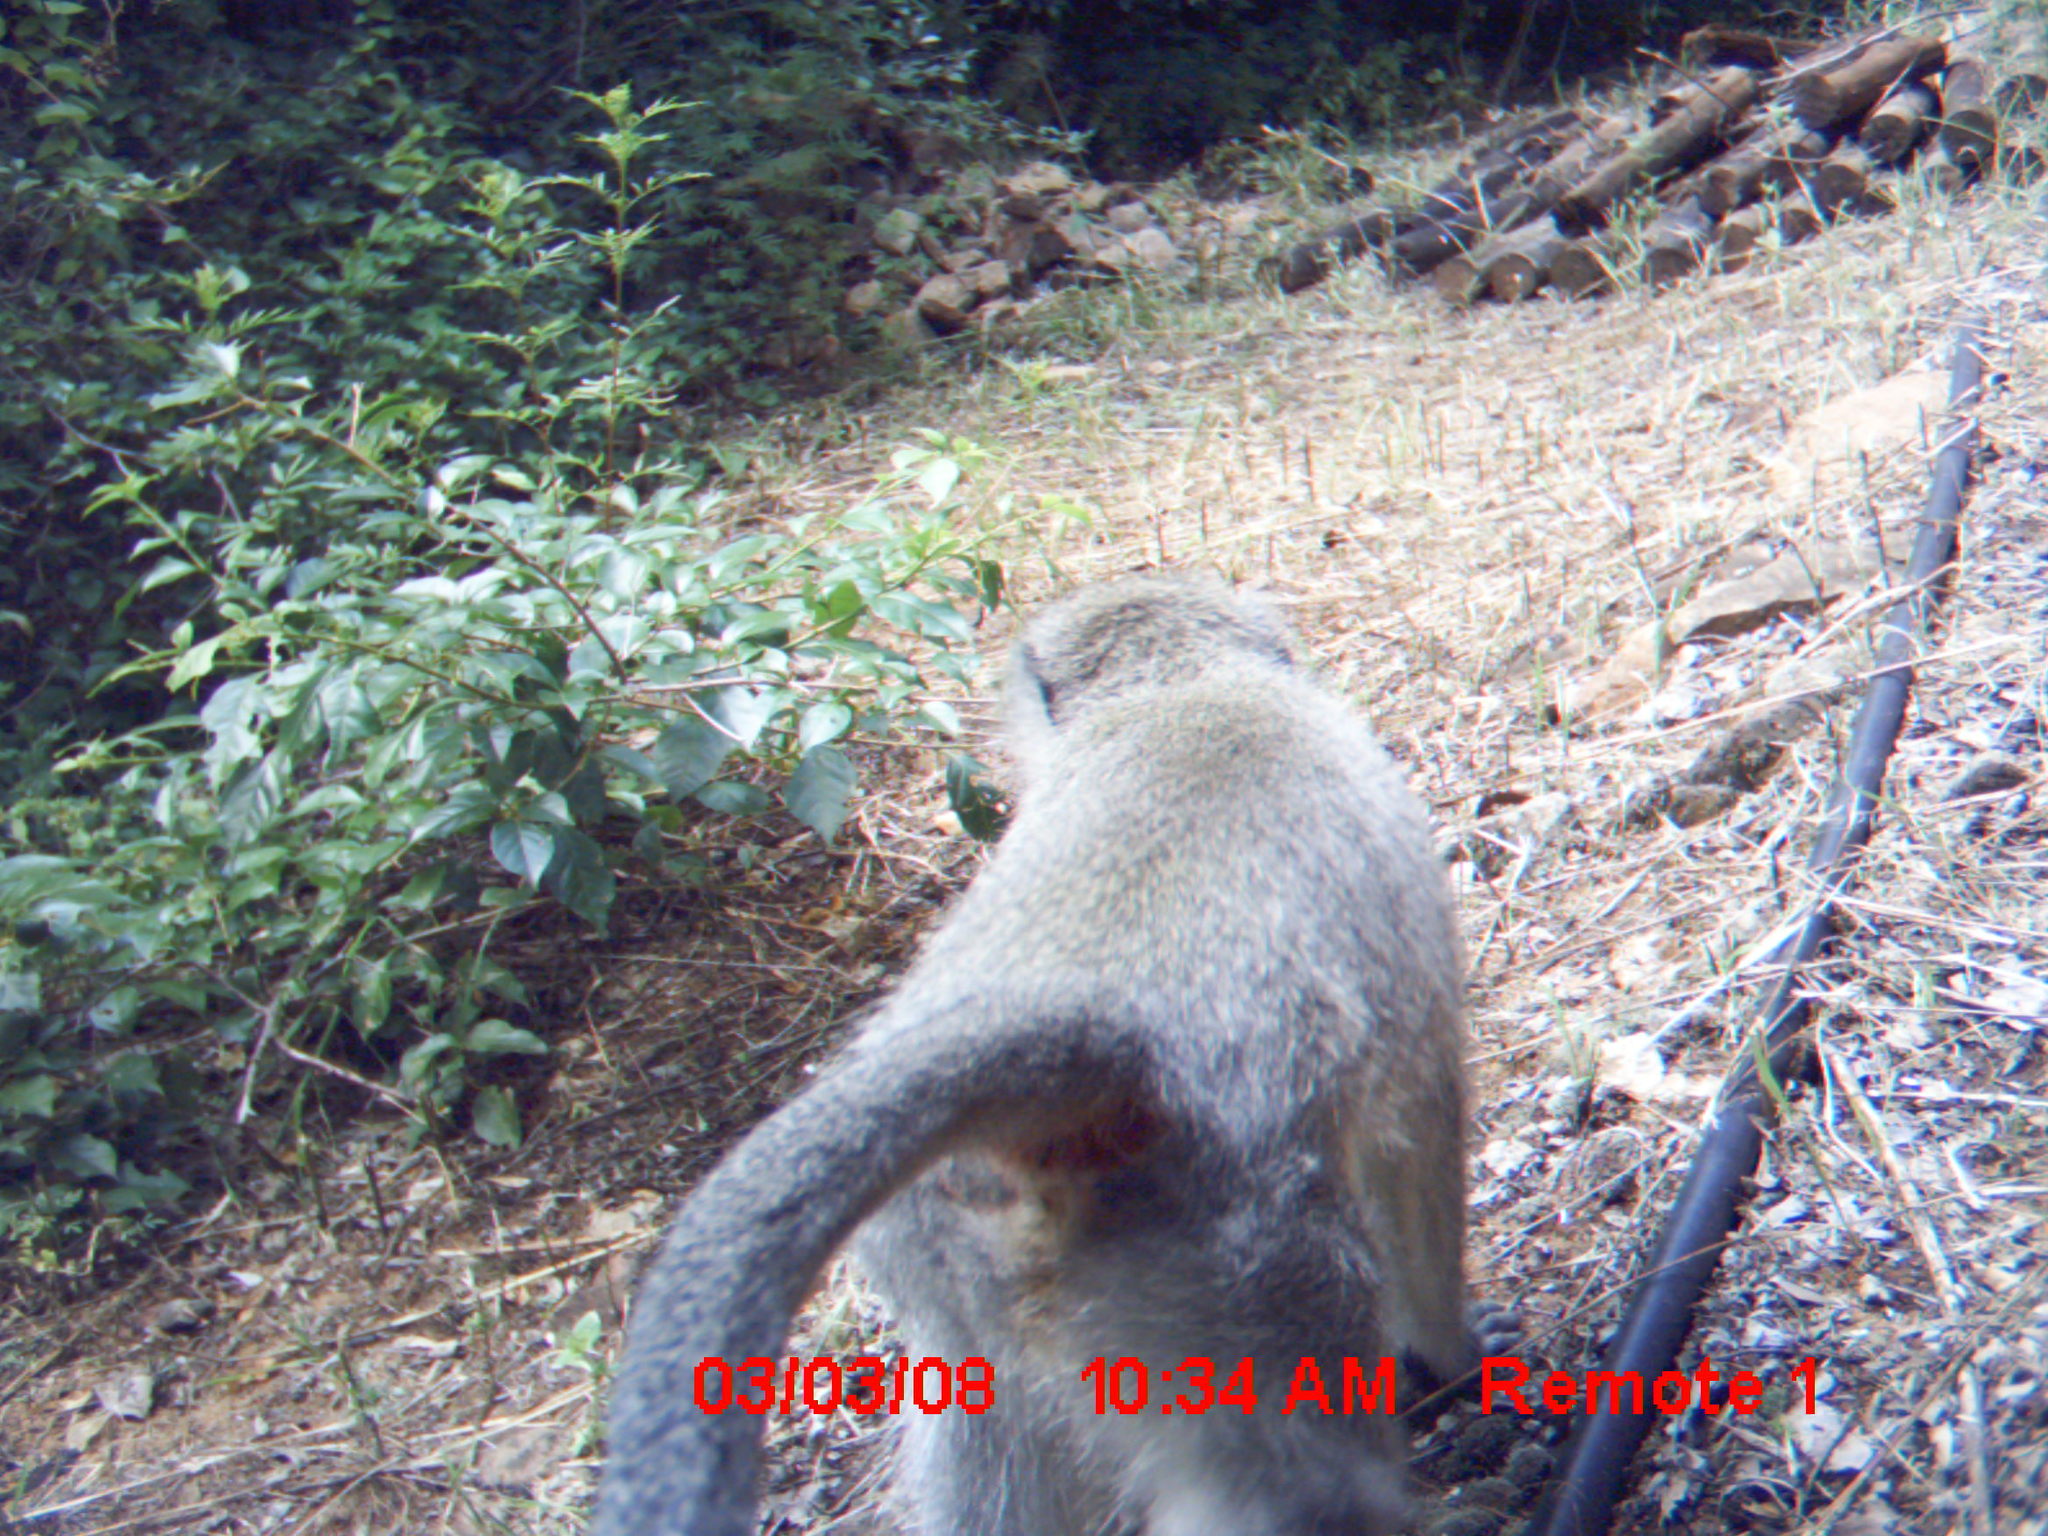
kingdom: Animalia
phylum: Chordata
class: Mammalia
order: Primates
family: Cercopithecidae
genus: Chlorocebus
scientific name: Chlorocebus pygerythrus
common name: Vervet monkey
